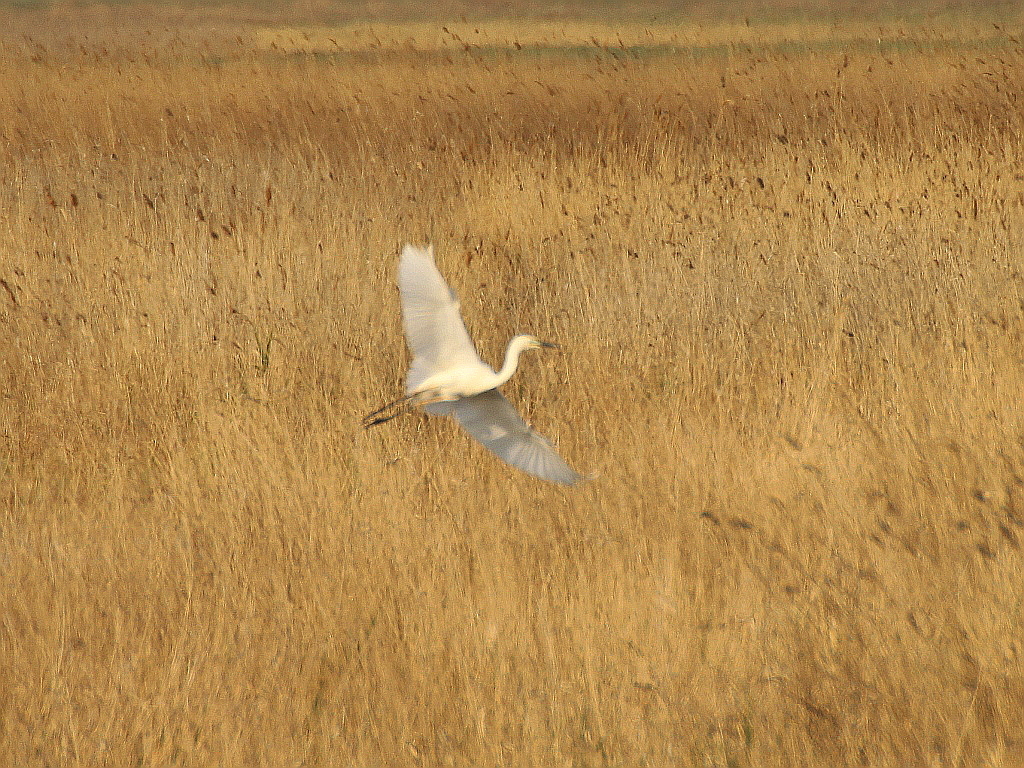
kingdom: Animalia
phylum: Chordata
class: Aves
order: Pelecaniformes
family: Ardeidae
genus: Ardea
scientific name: Ardea alba
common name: Great egret
